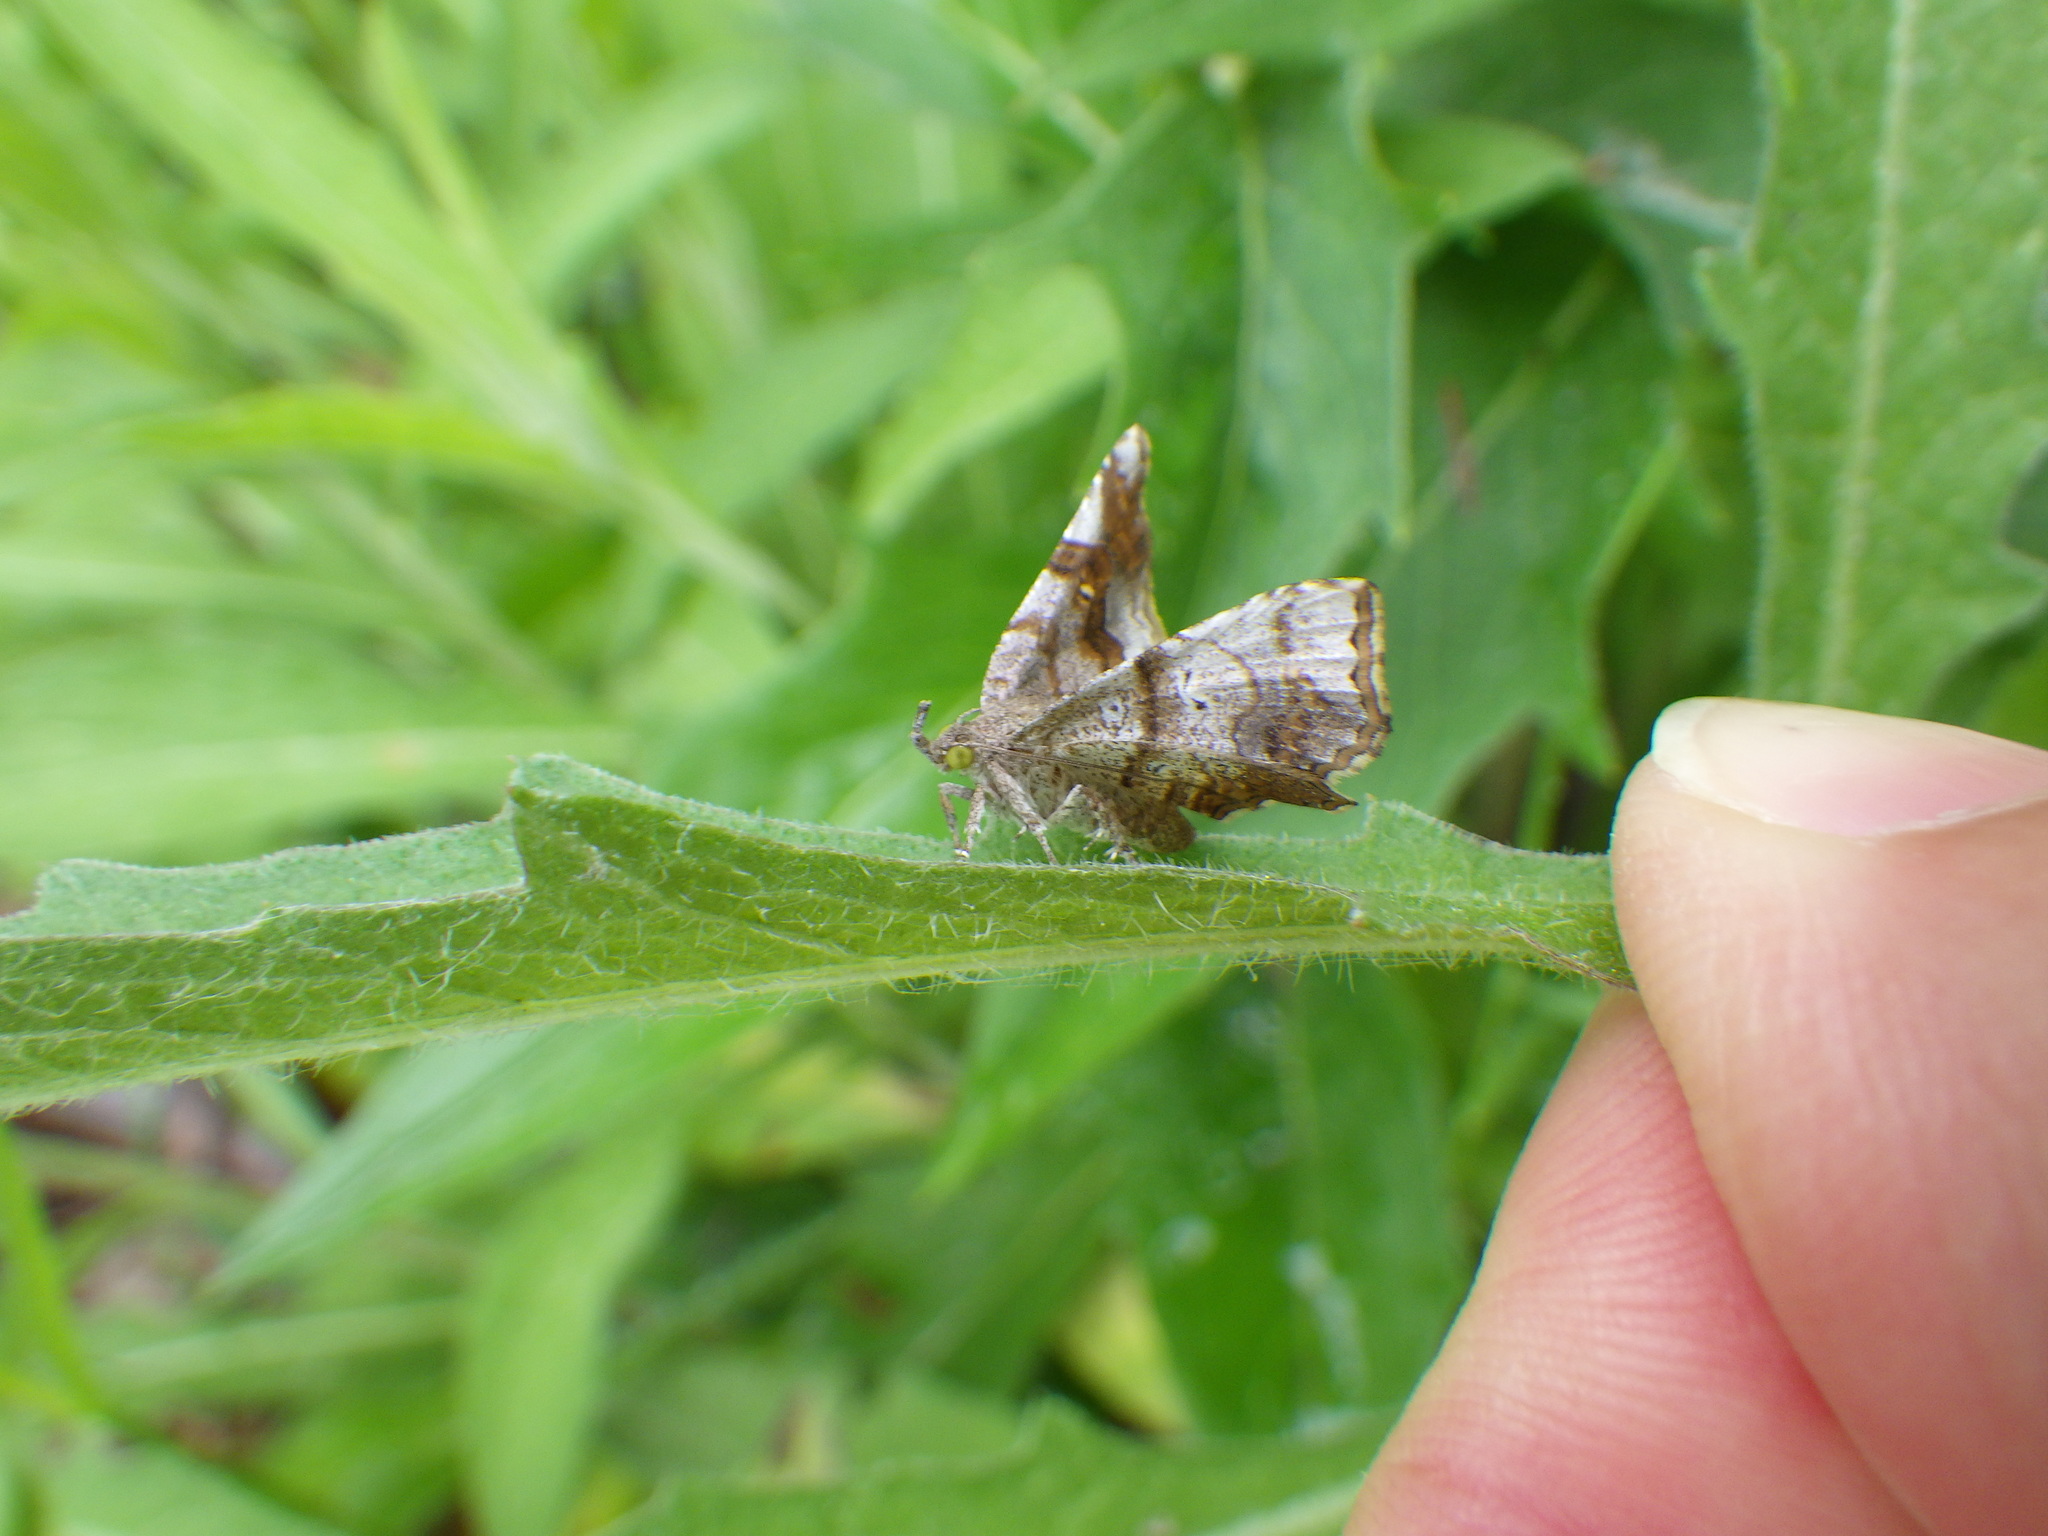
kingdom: Animalia
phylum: Arthropoda
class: Insecta
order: Lepidoptera
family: Erebidae
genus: Pangrapta
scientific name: Pangrapta decoralis
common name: Decorated owlet
